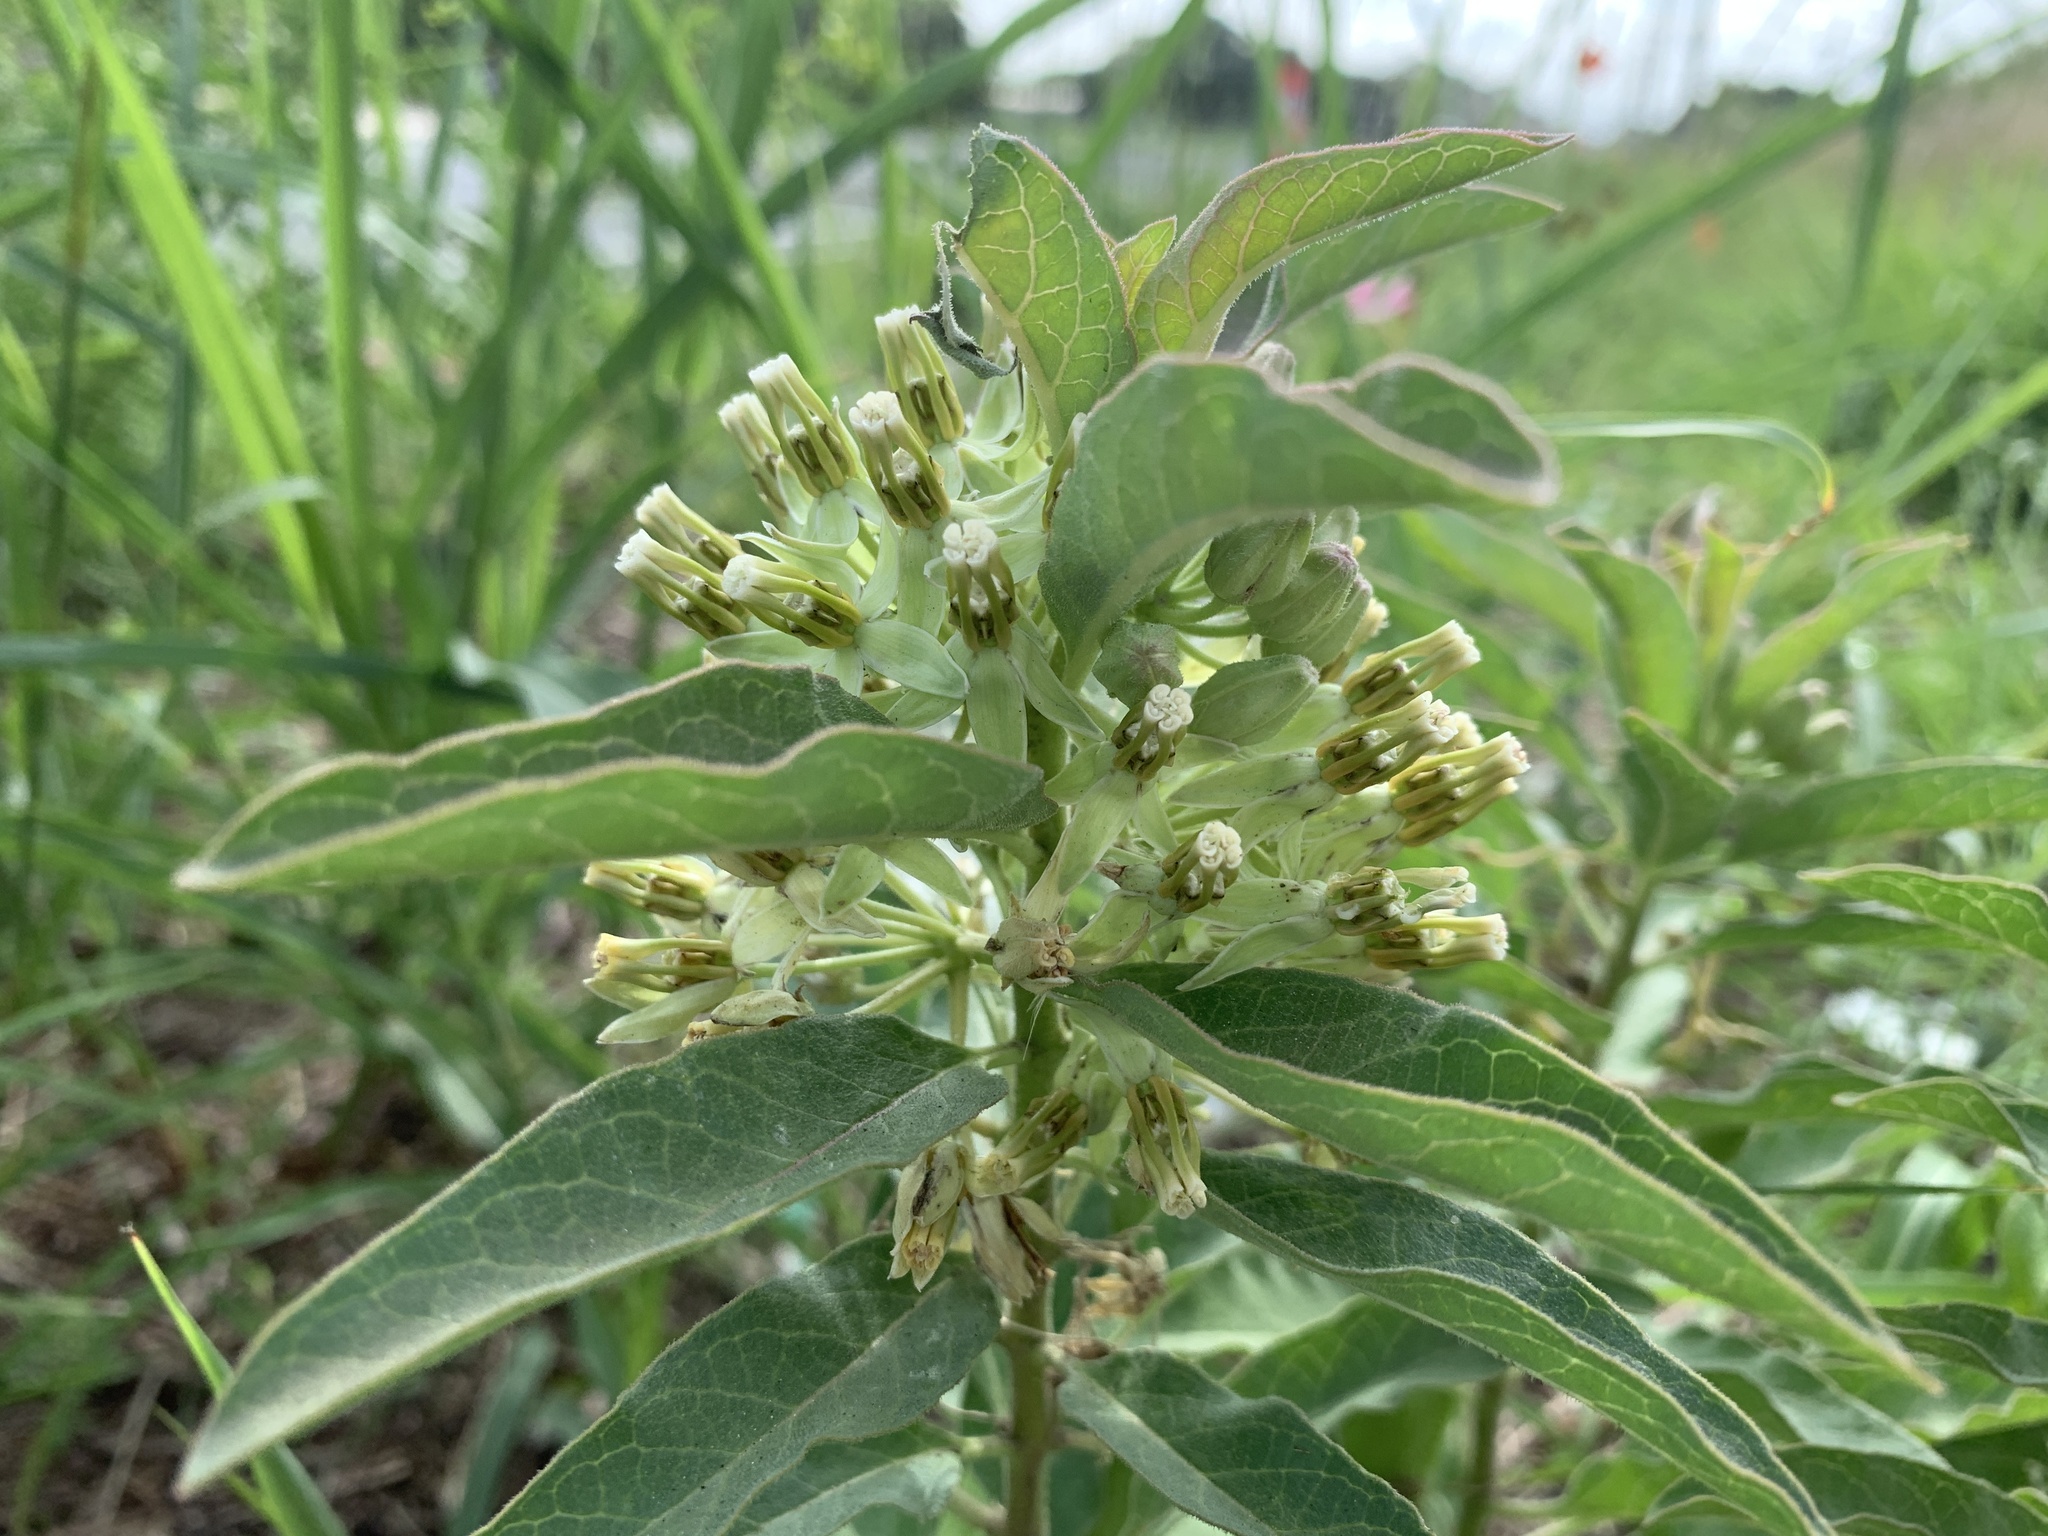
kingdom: Plantae
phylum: Tracheophyta
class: Magnoliopsida
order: Gentianales
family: Apocynaceae
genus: Asclepias
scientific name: Asclepias oenotheroides
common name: Zizotes milkweed
